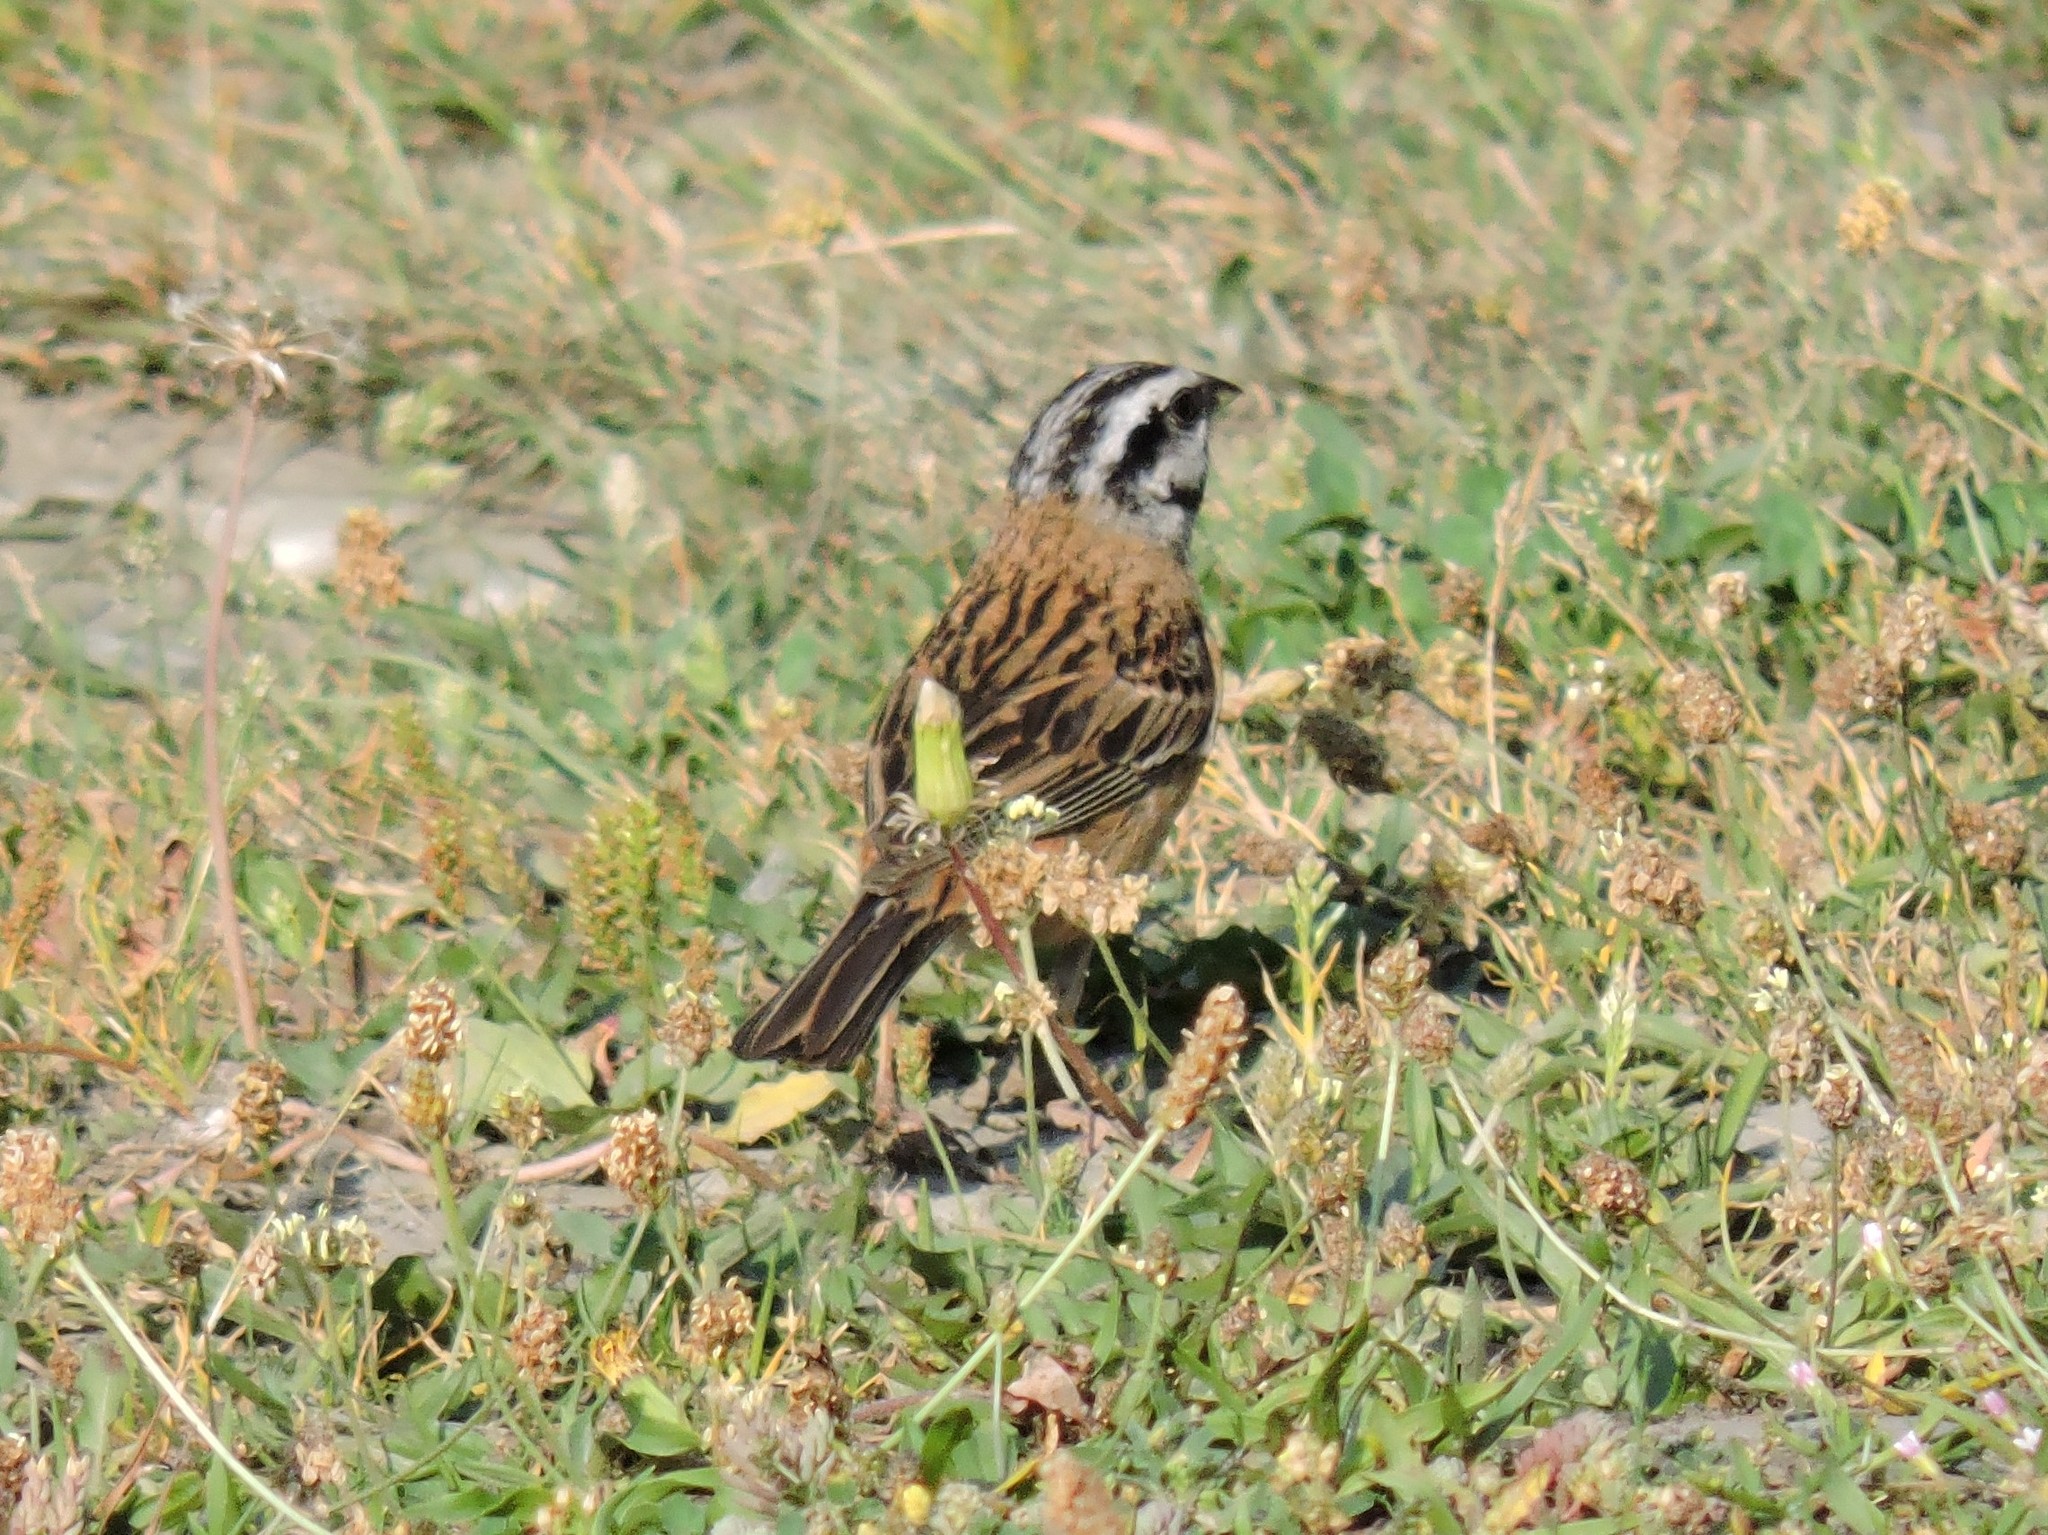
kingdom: Animalia
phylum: Chordata
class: Aves
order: Passeriformes
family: Emberizidae
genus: Emberiza
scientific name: Emberiza cia
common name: Rock bunting
